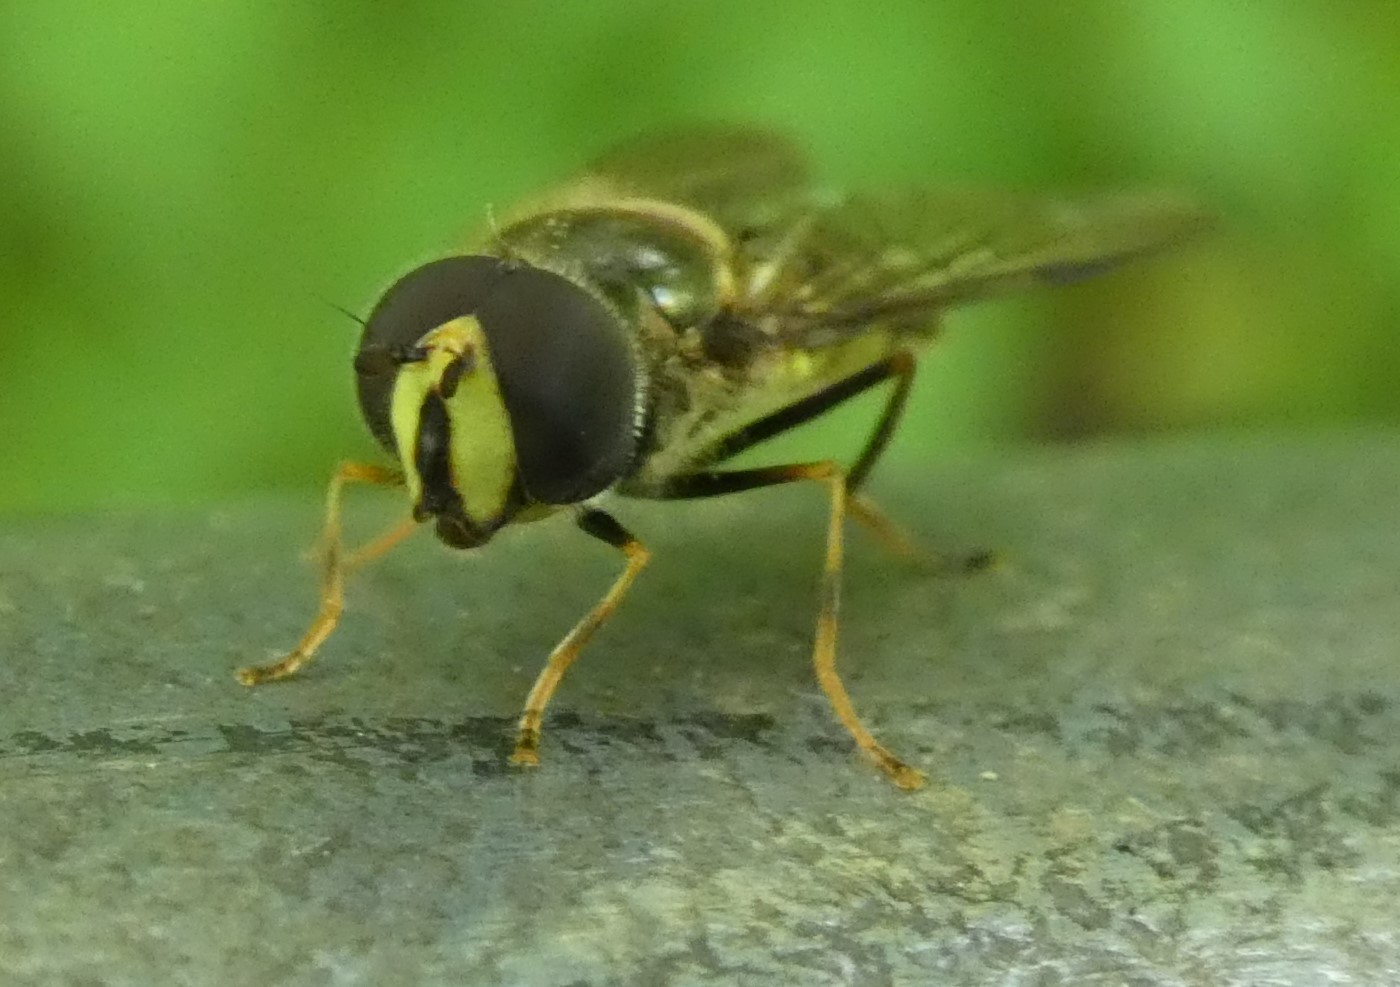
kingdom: Animalia
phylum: Arthropoda
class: Insecta
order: Diptera
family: Syrphidae
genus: Dasysyrphus
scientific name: Dasysyrphus albostriatus
